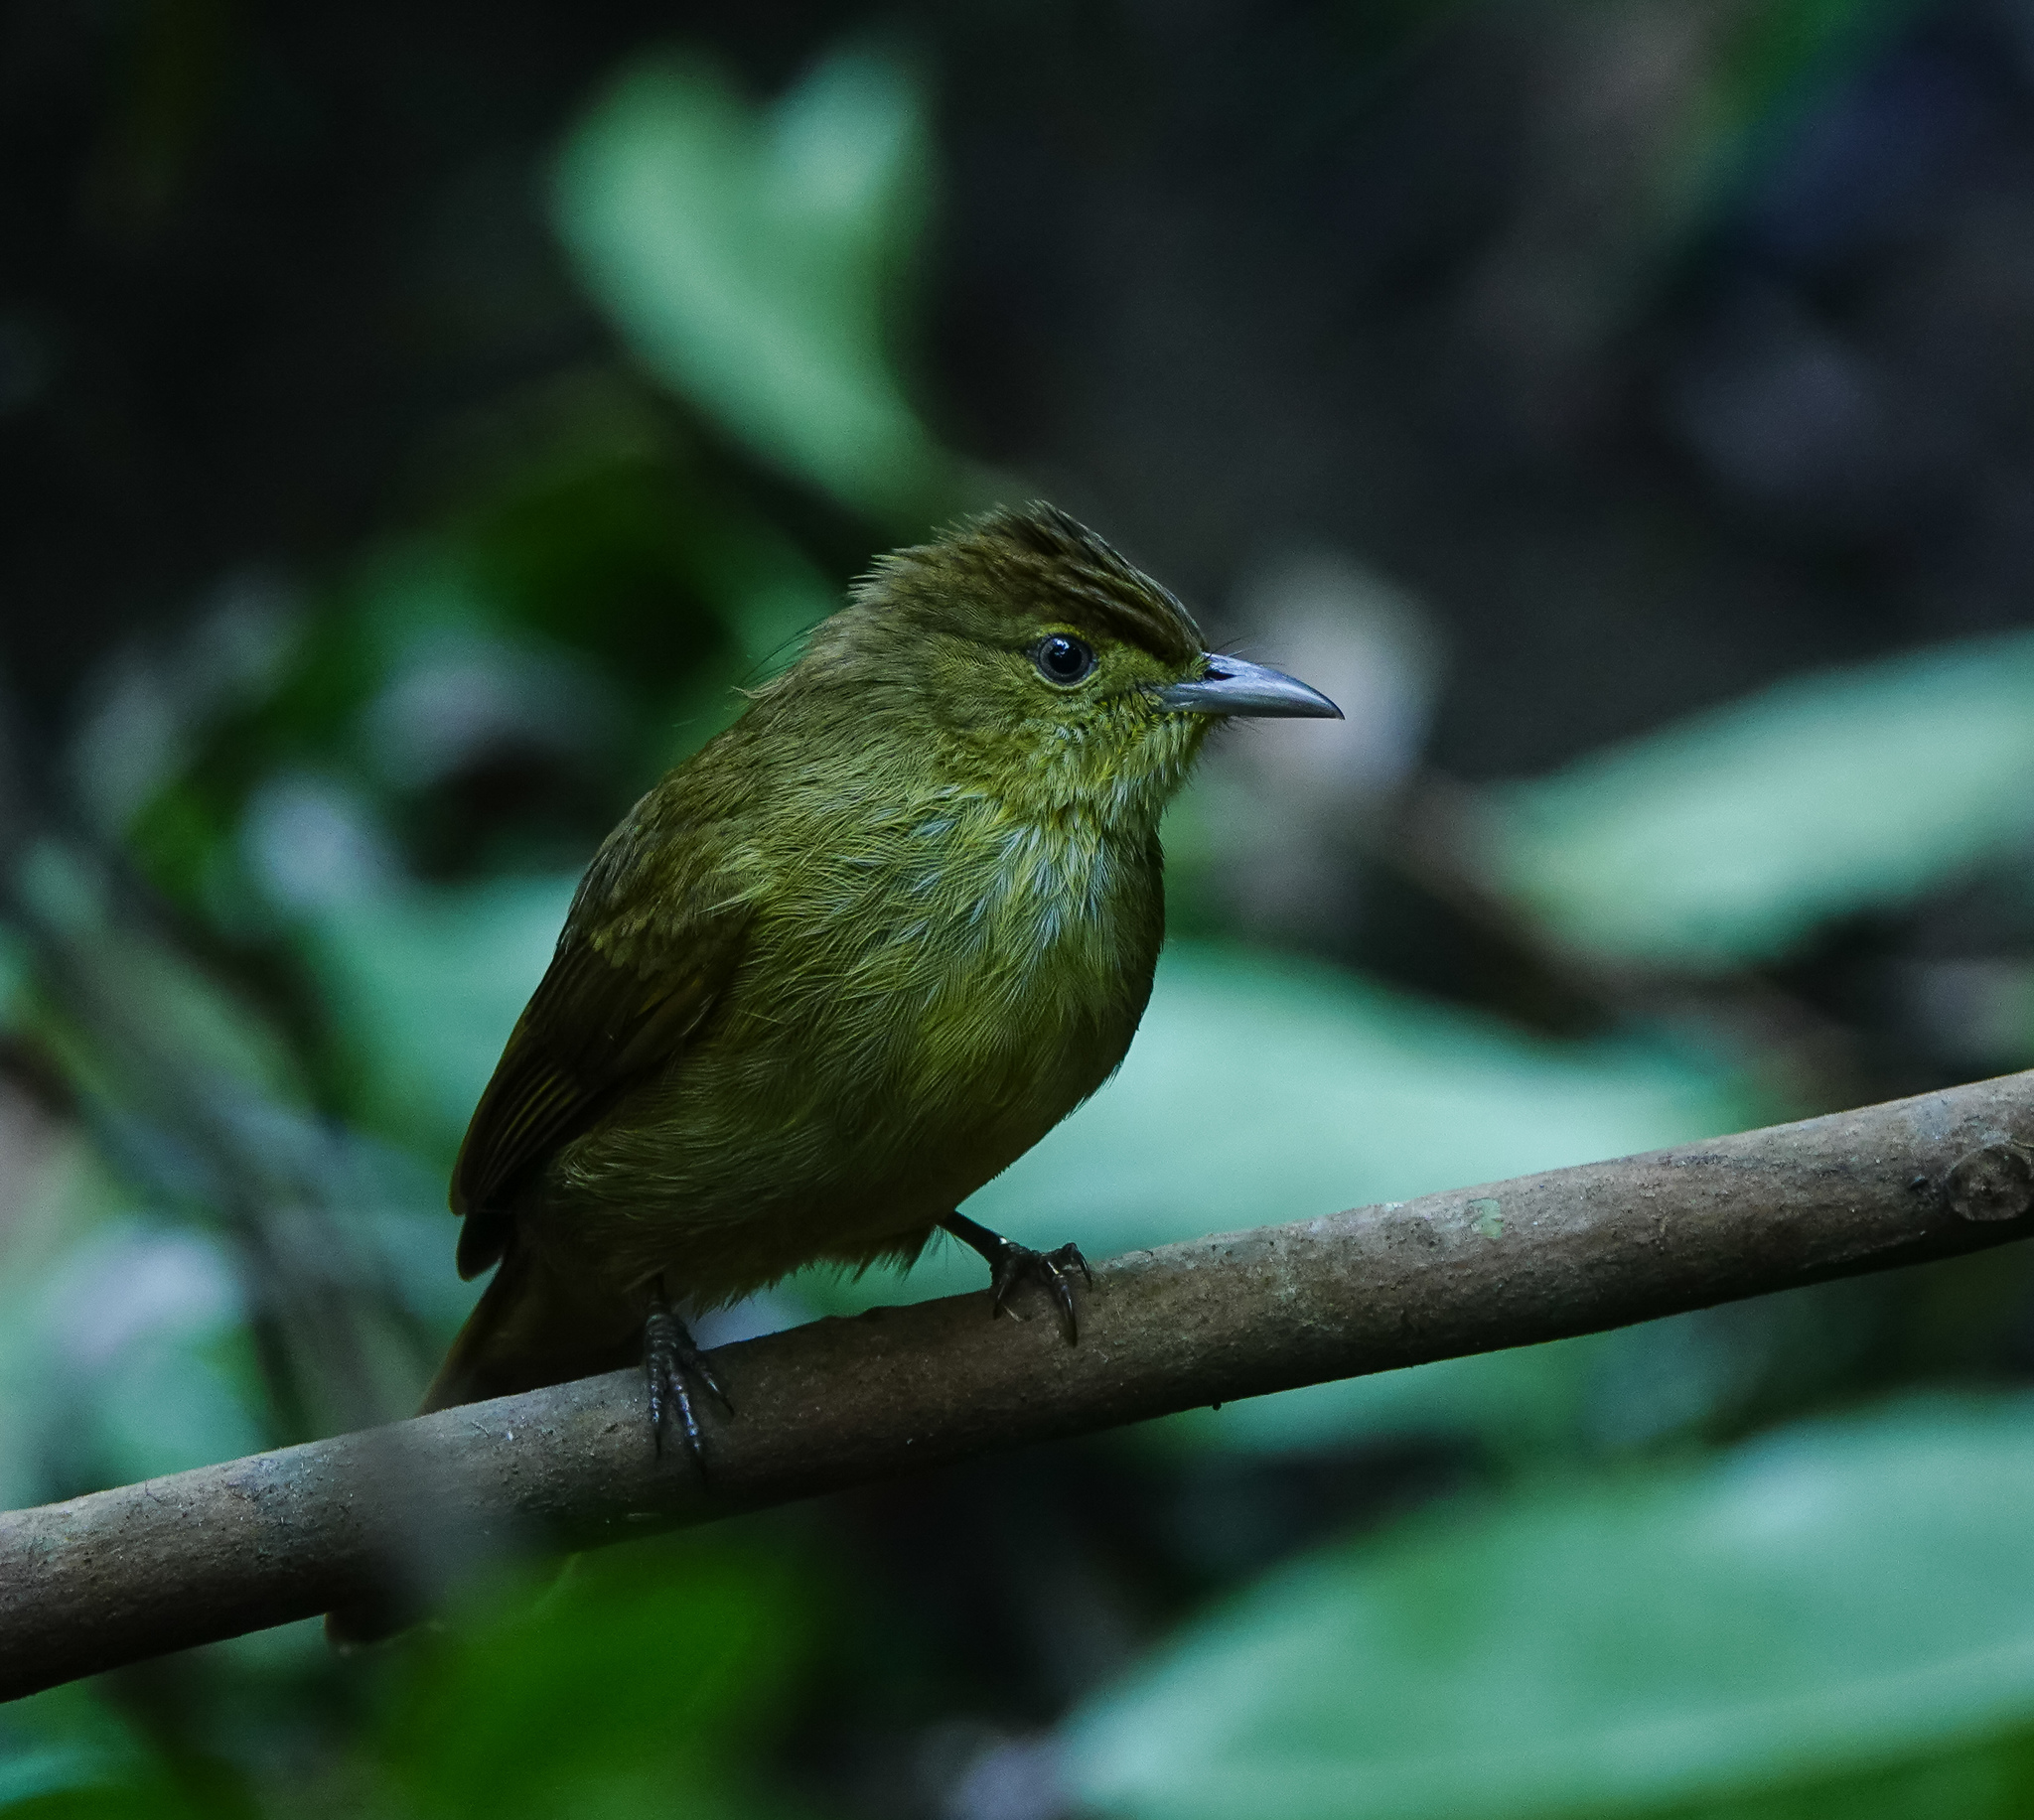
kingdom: Animalia
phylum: Chordata
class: Aves
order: Passeriformes
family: Pycnonotidae
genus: Iole
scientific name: Iole virescens
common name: Olive bulbul
